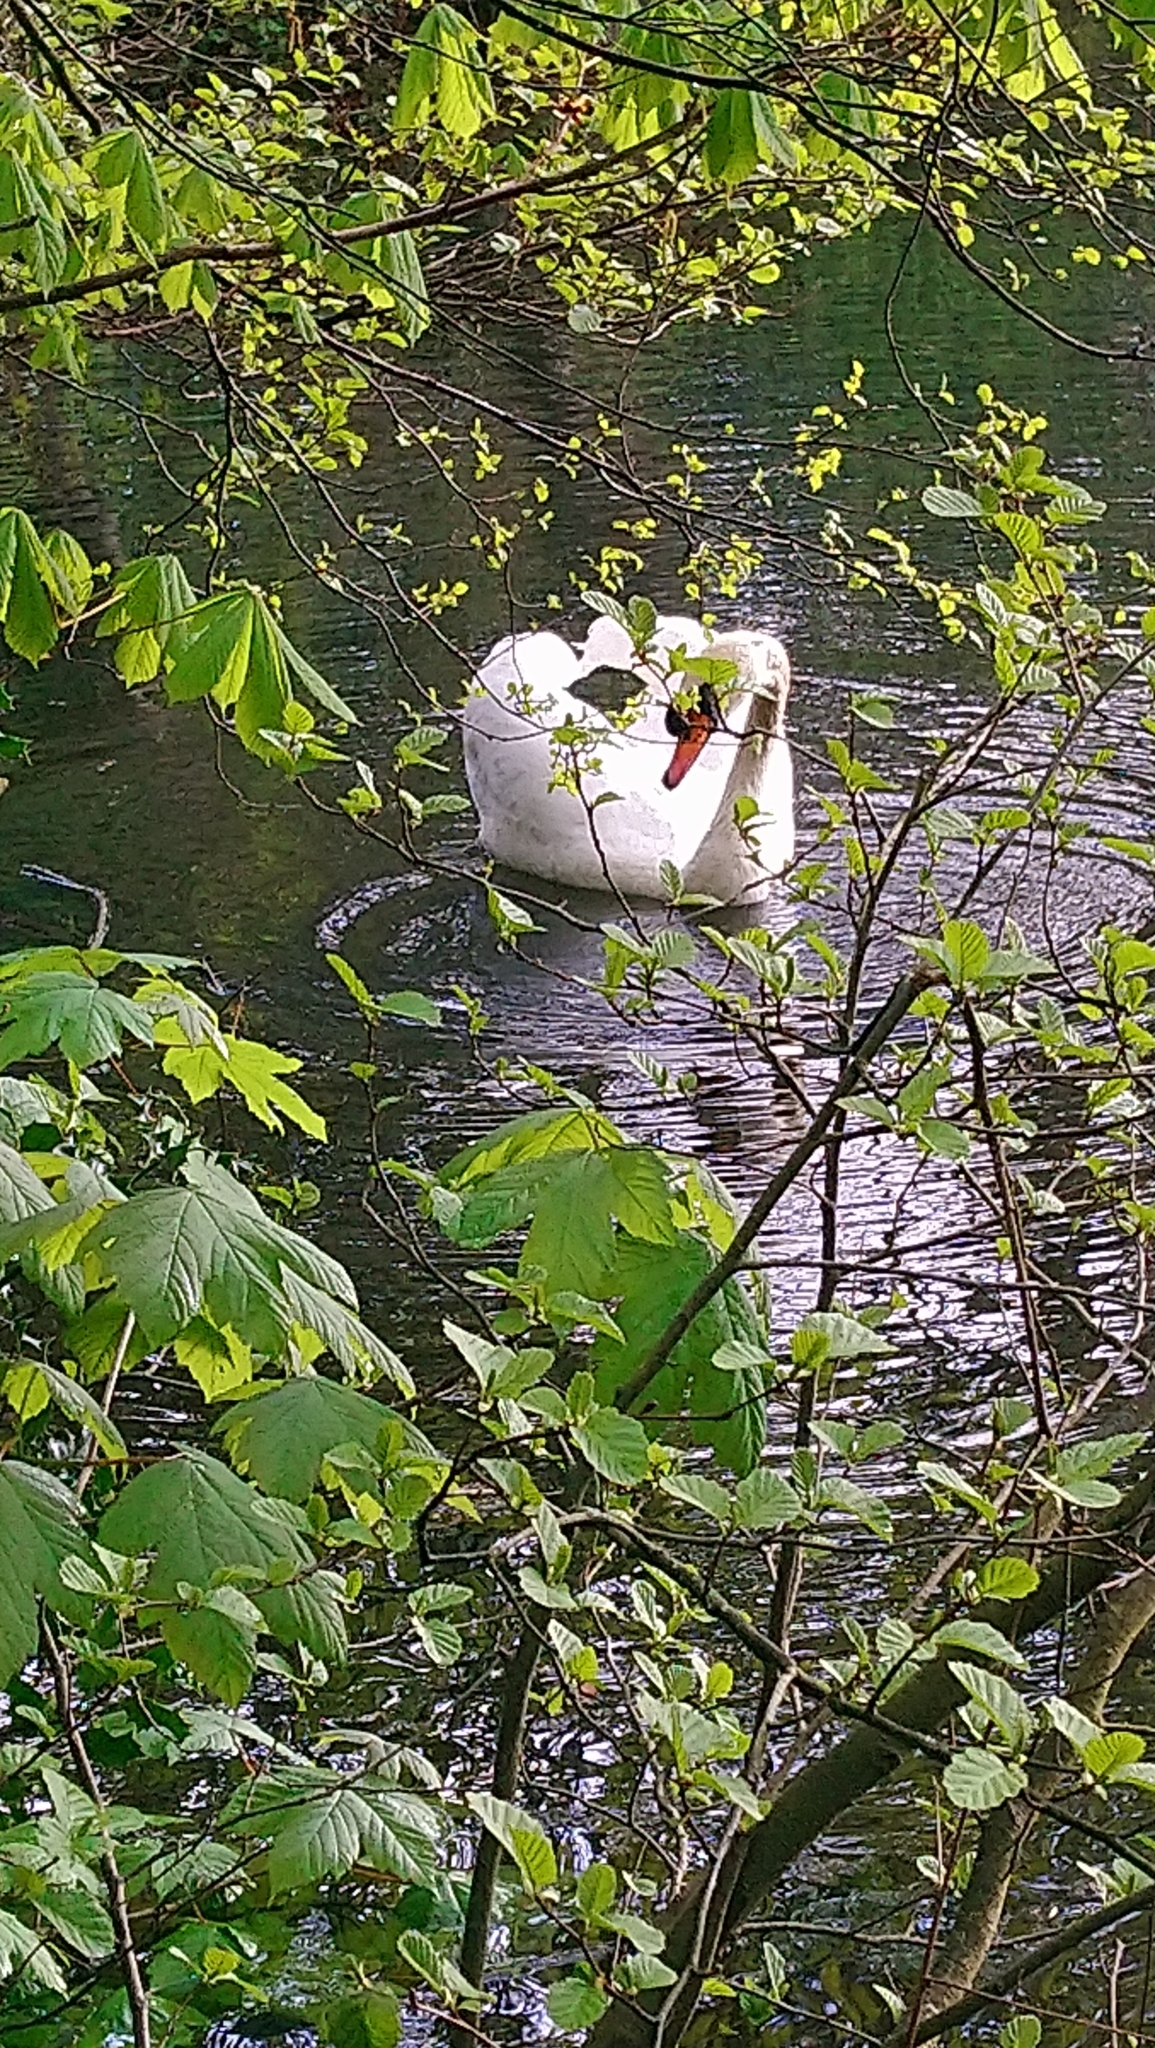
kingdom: Animalia
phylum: Chordata
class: Aves
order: Anseriformes
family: Anatidae
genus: Cygnus
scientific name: Cygnus olor
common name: Mute swan
